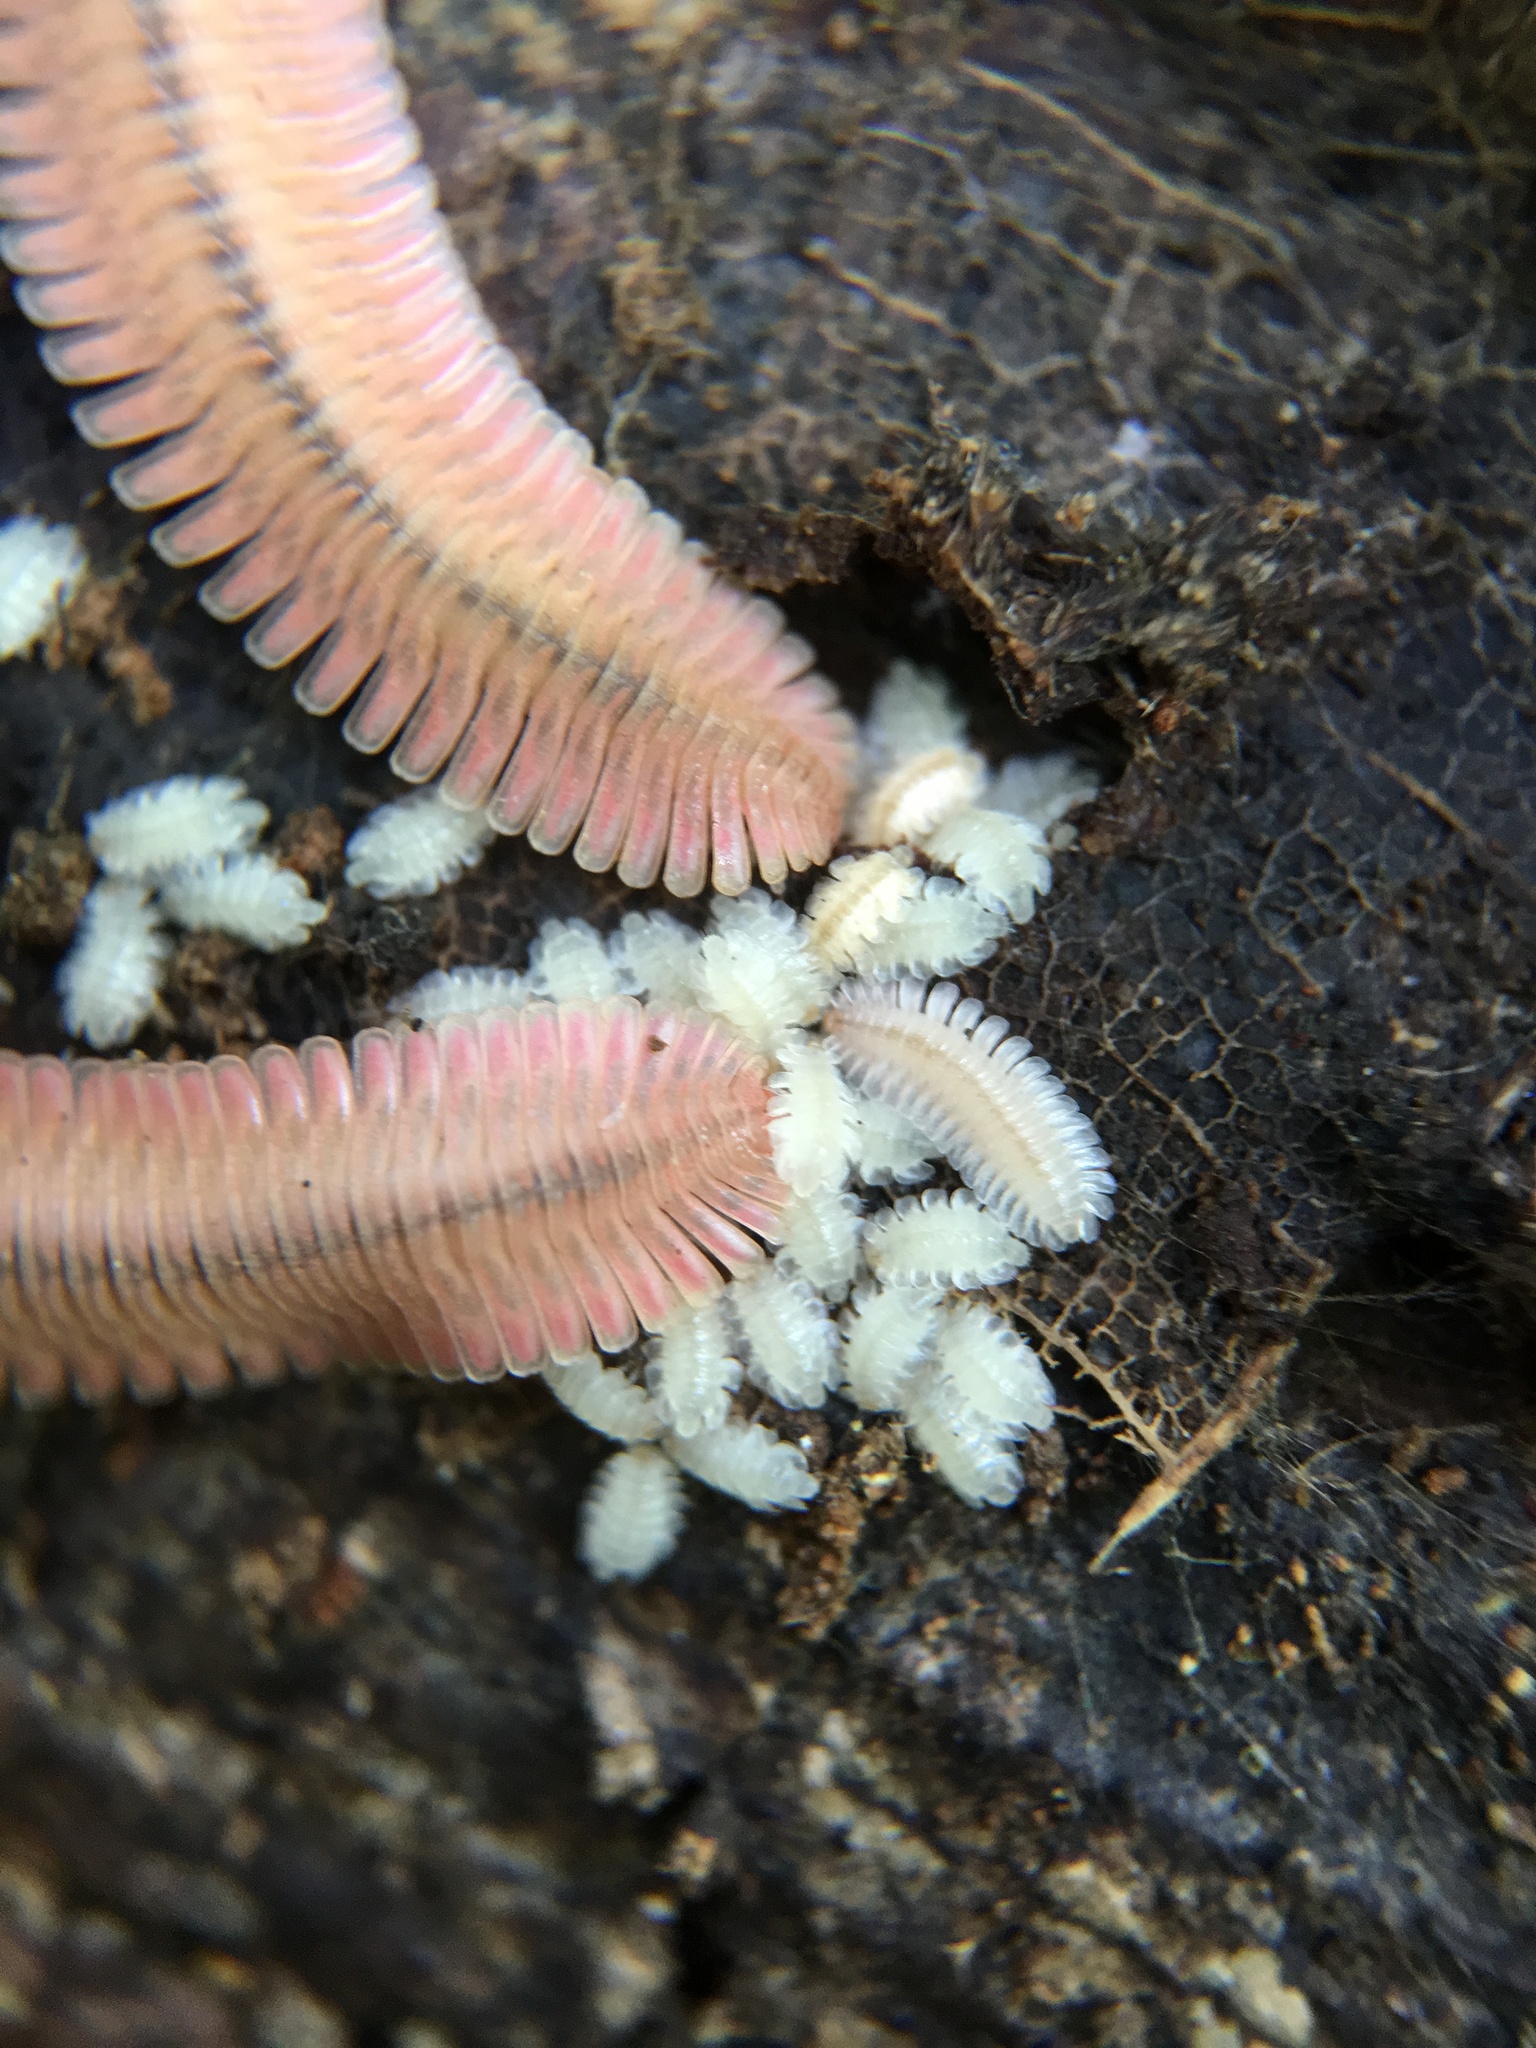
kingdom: Animalia
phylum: Arthropoda
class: Diplopoda
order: Platydesmida
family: Andrognathidae
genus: Brachycybe
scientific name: Brachycybe lecontii
